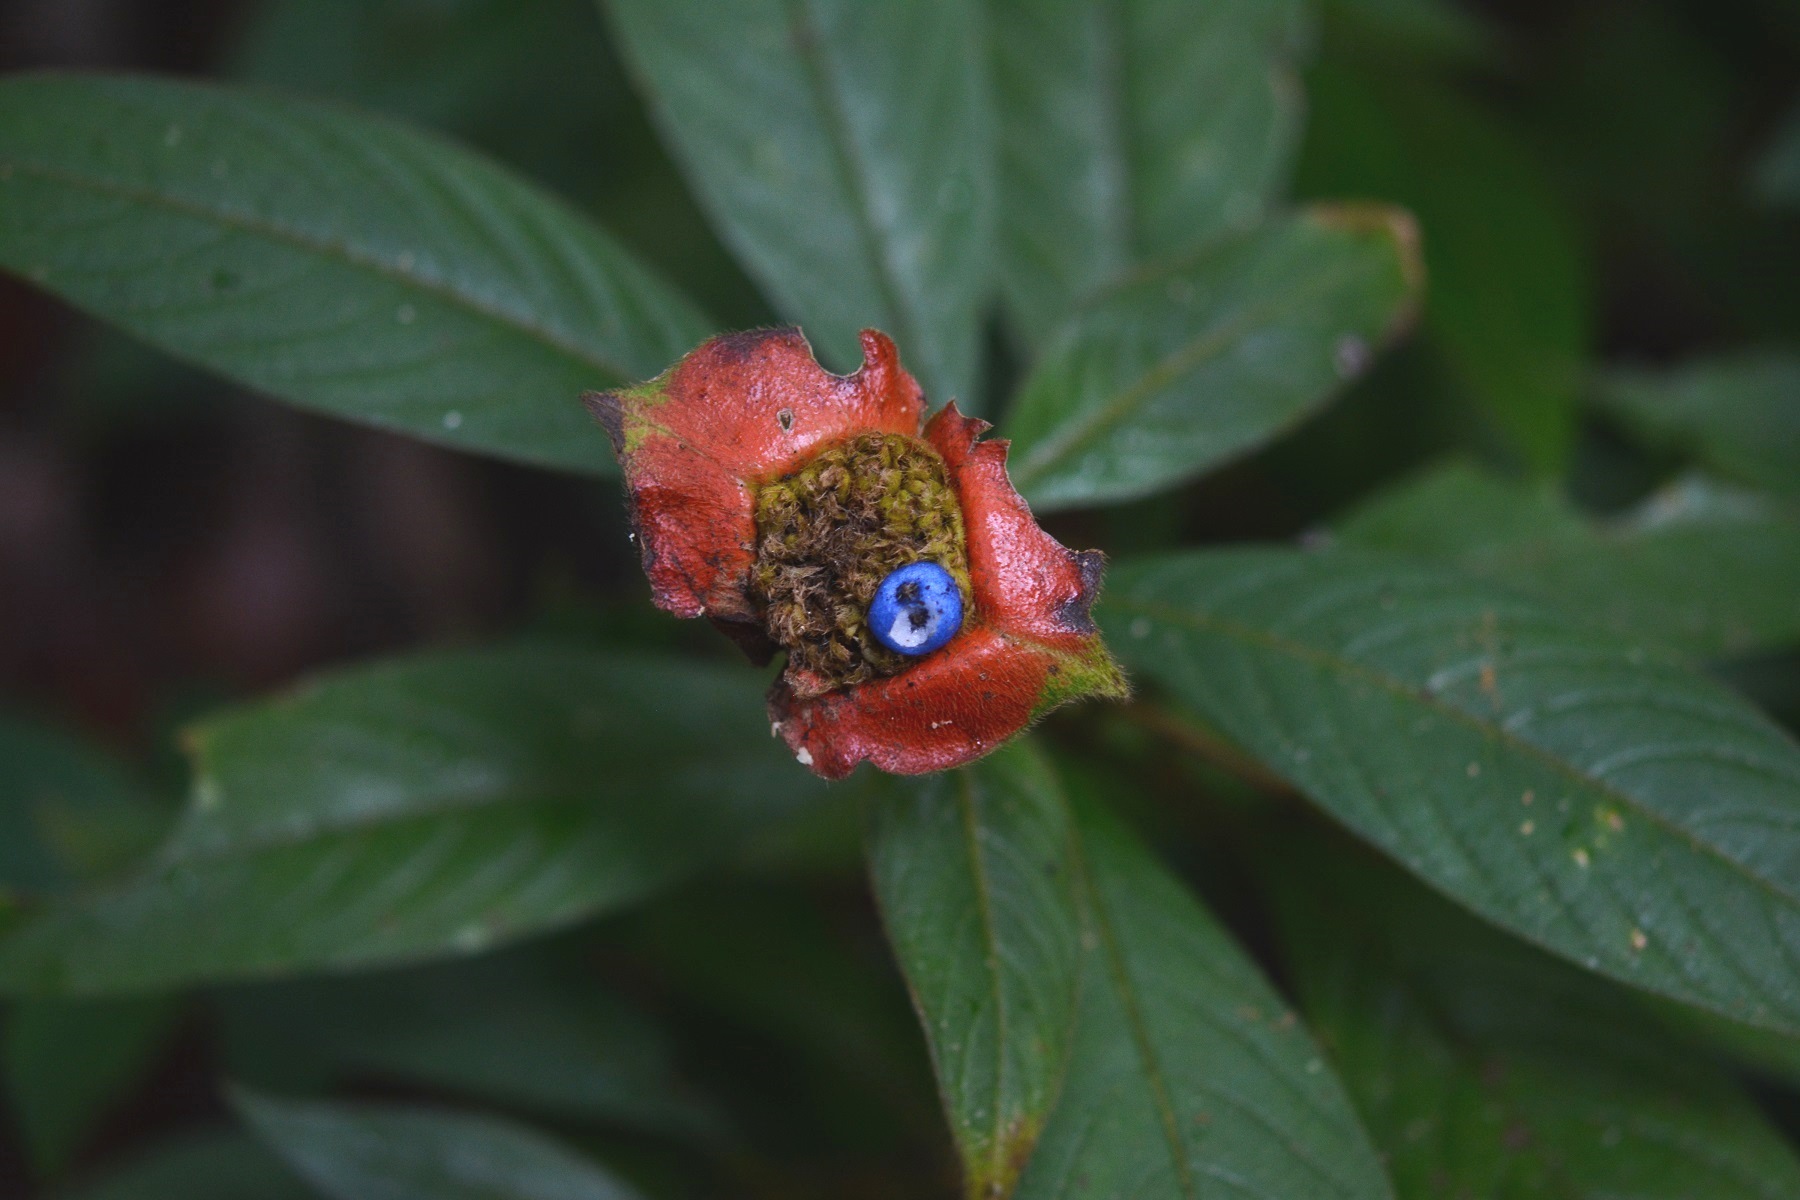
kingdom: Plantae
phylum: Tracheophyta
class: Magnoliopsida
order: Gentianales
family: Rubiaceae
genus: Palicourea
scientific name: Palicourea tomentosa
